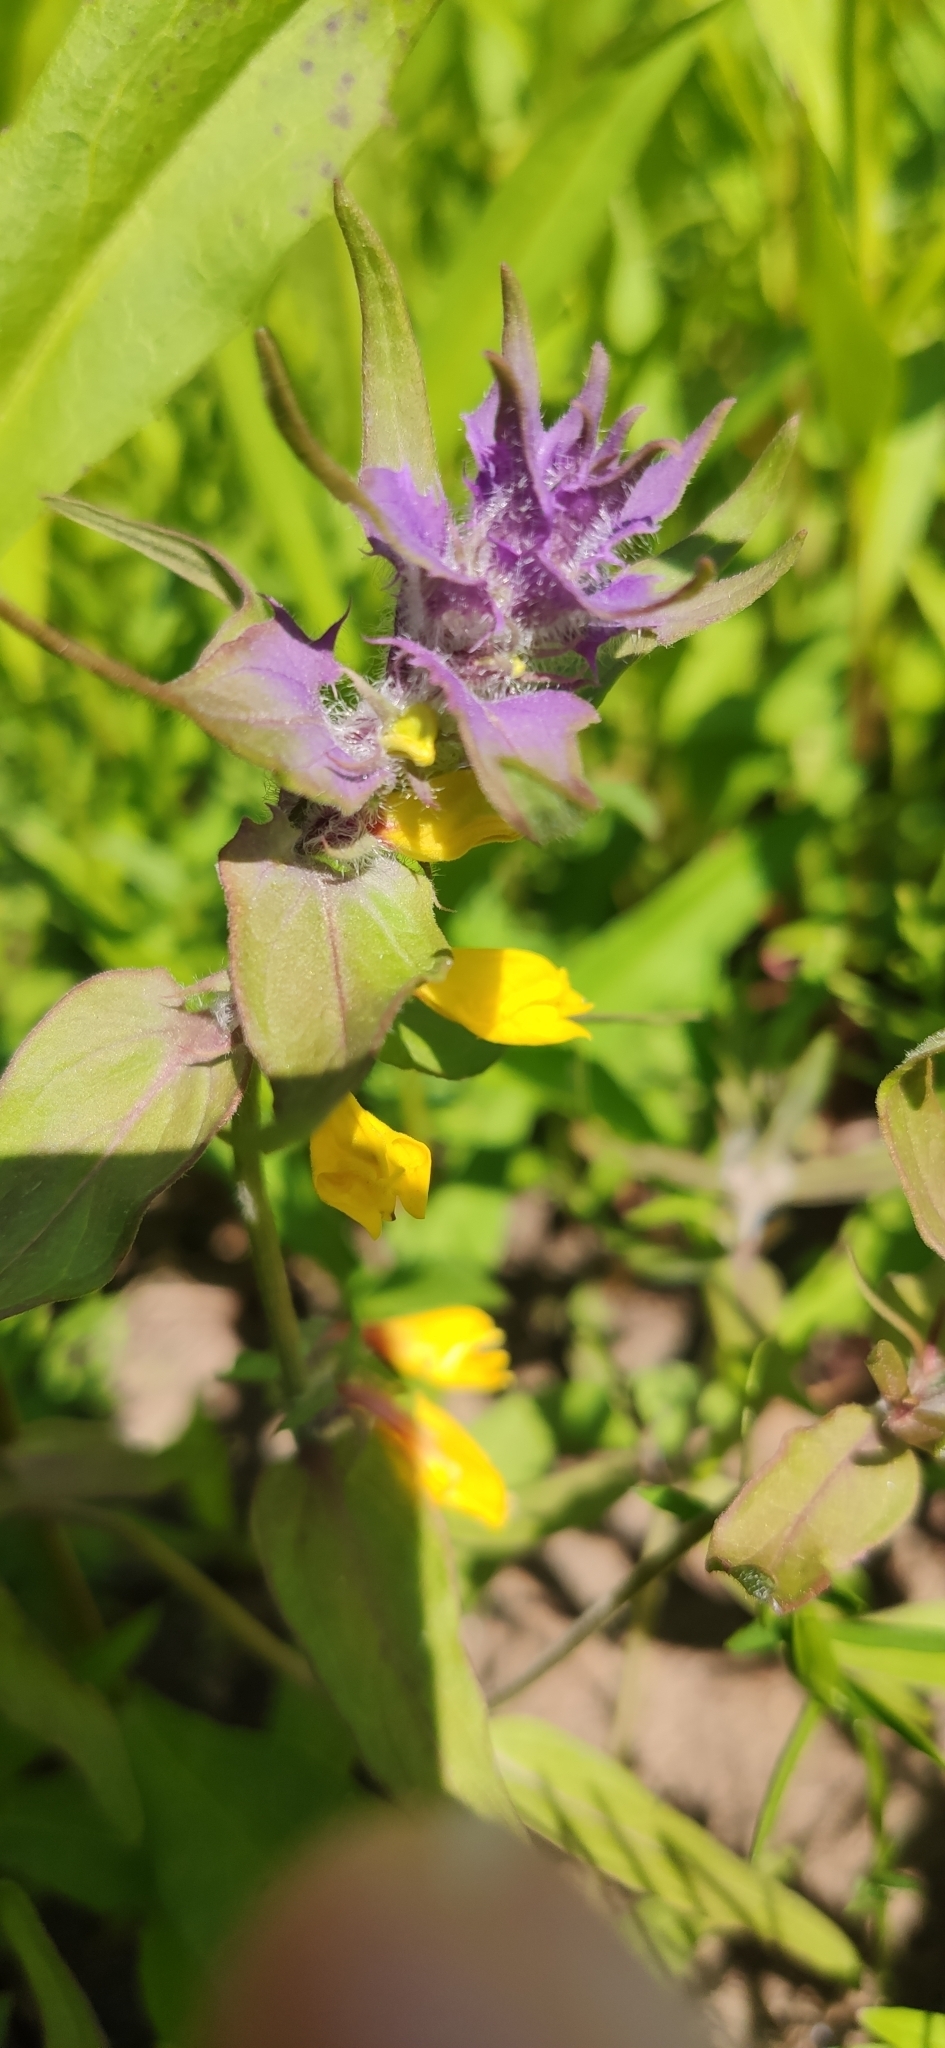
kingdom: Plantae
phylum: Tracheophyta
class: Magnoliopsida
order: Lamiales
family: Orobanchaceae
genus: Melampyrum
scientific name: Melampyrum nemorosum
